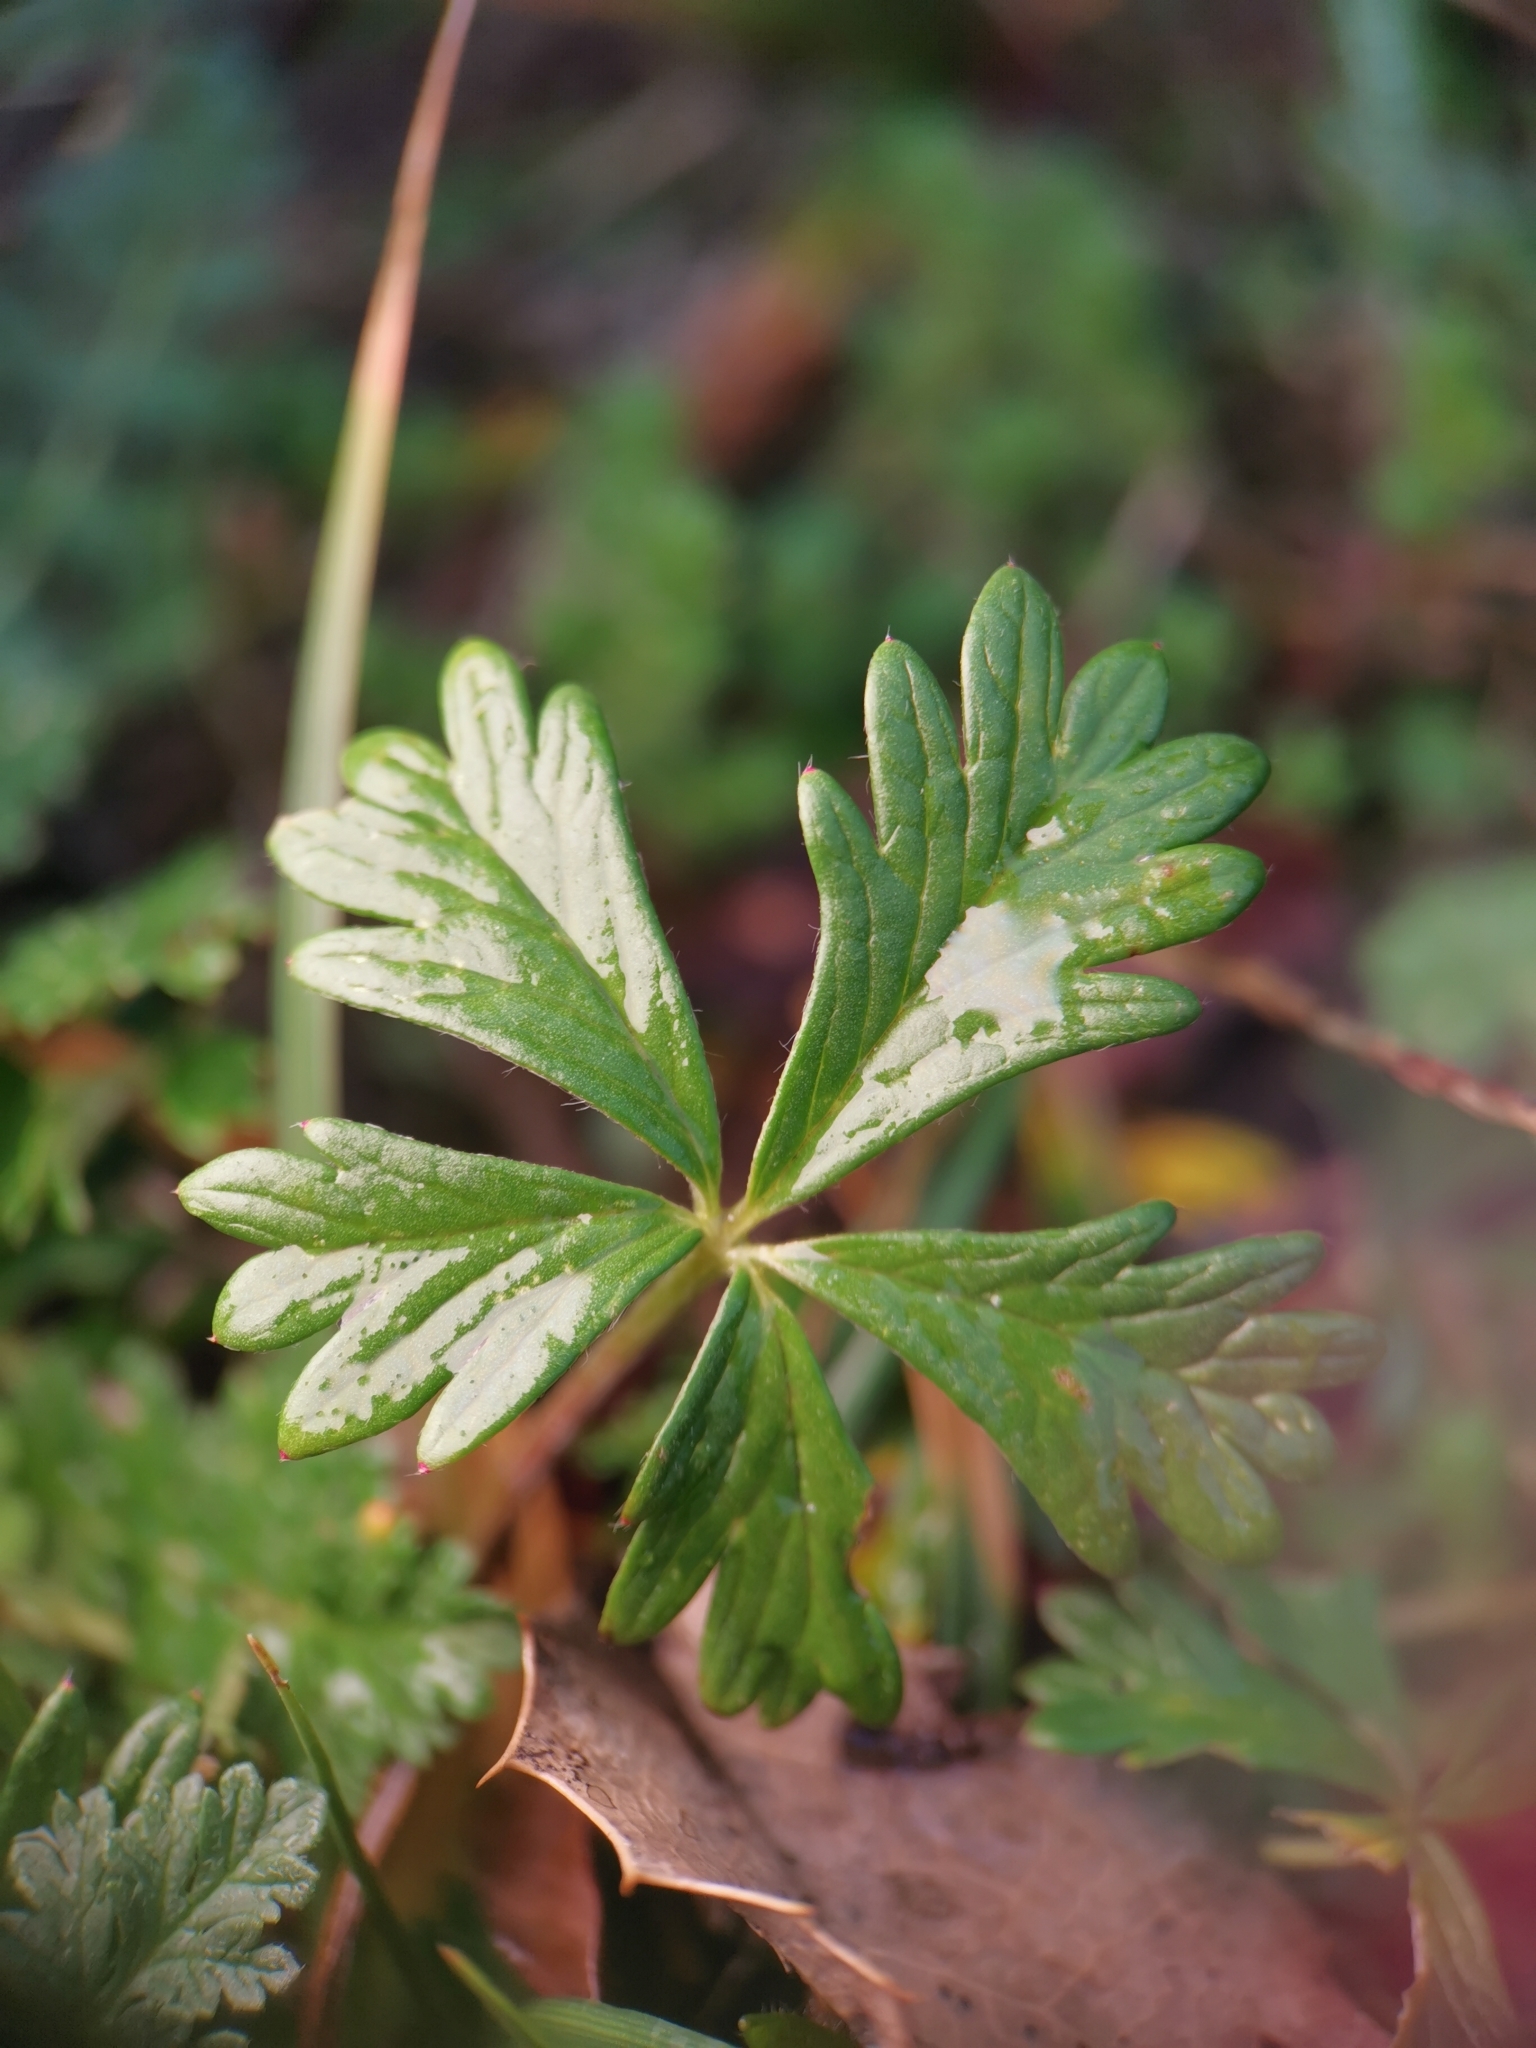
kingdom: Plantae
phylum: Tracheophyta
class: Magnoliopsida
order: Rosales
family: Rosaceae
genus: Potentilla
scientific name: Potentilla argentea
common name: Hoary cinquefoil
